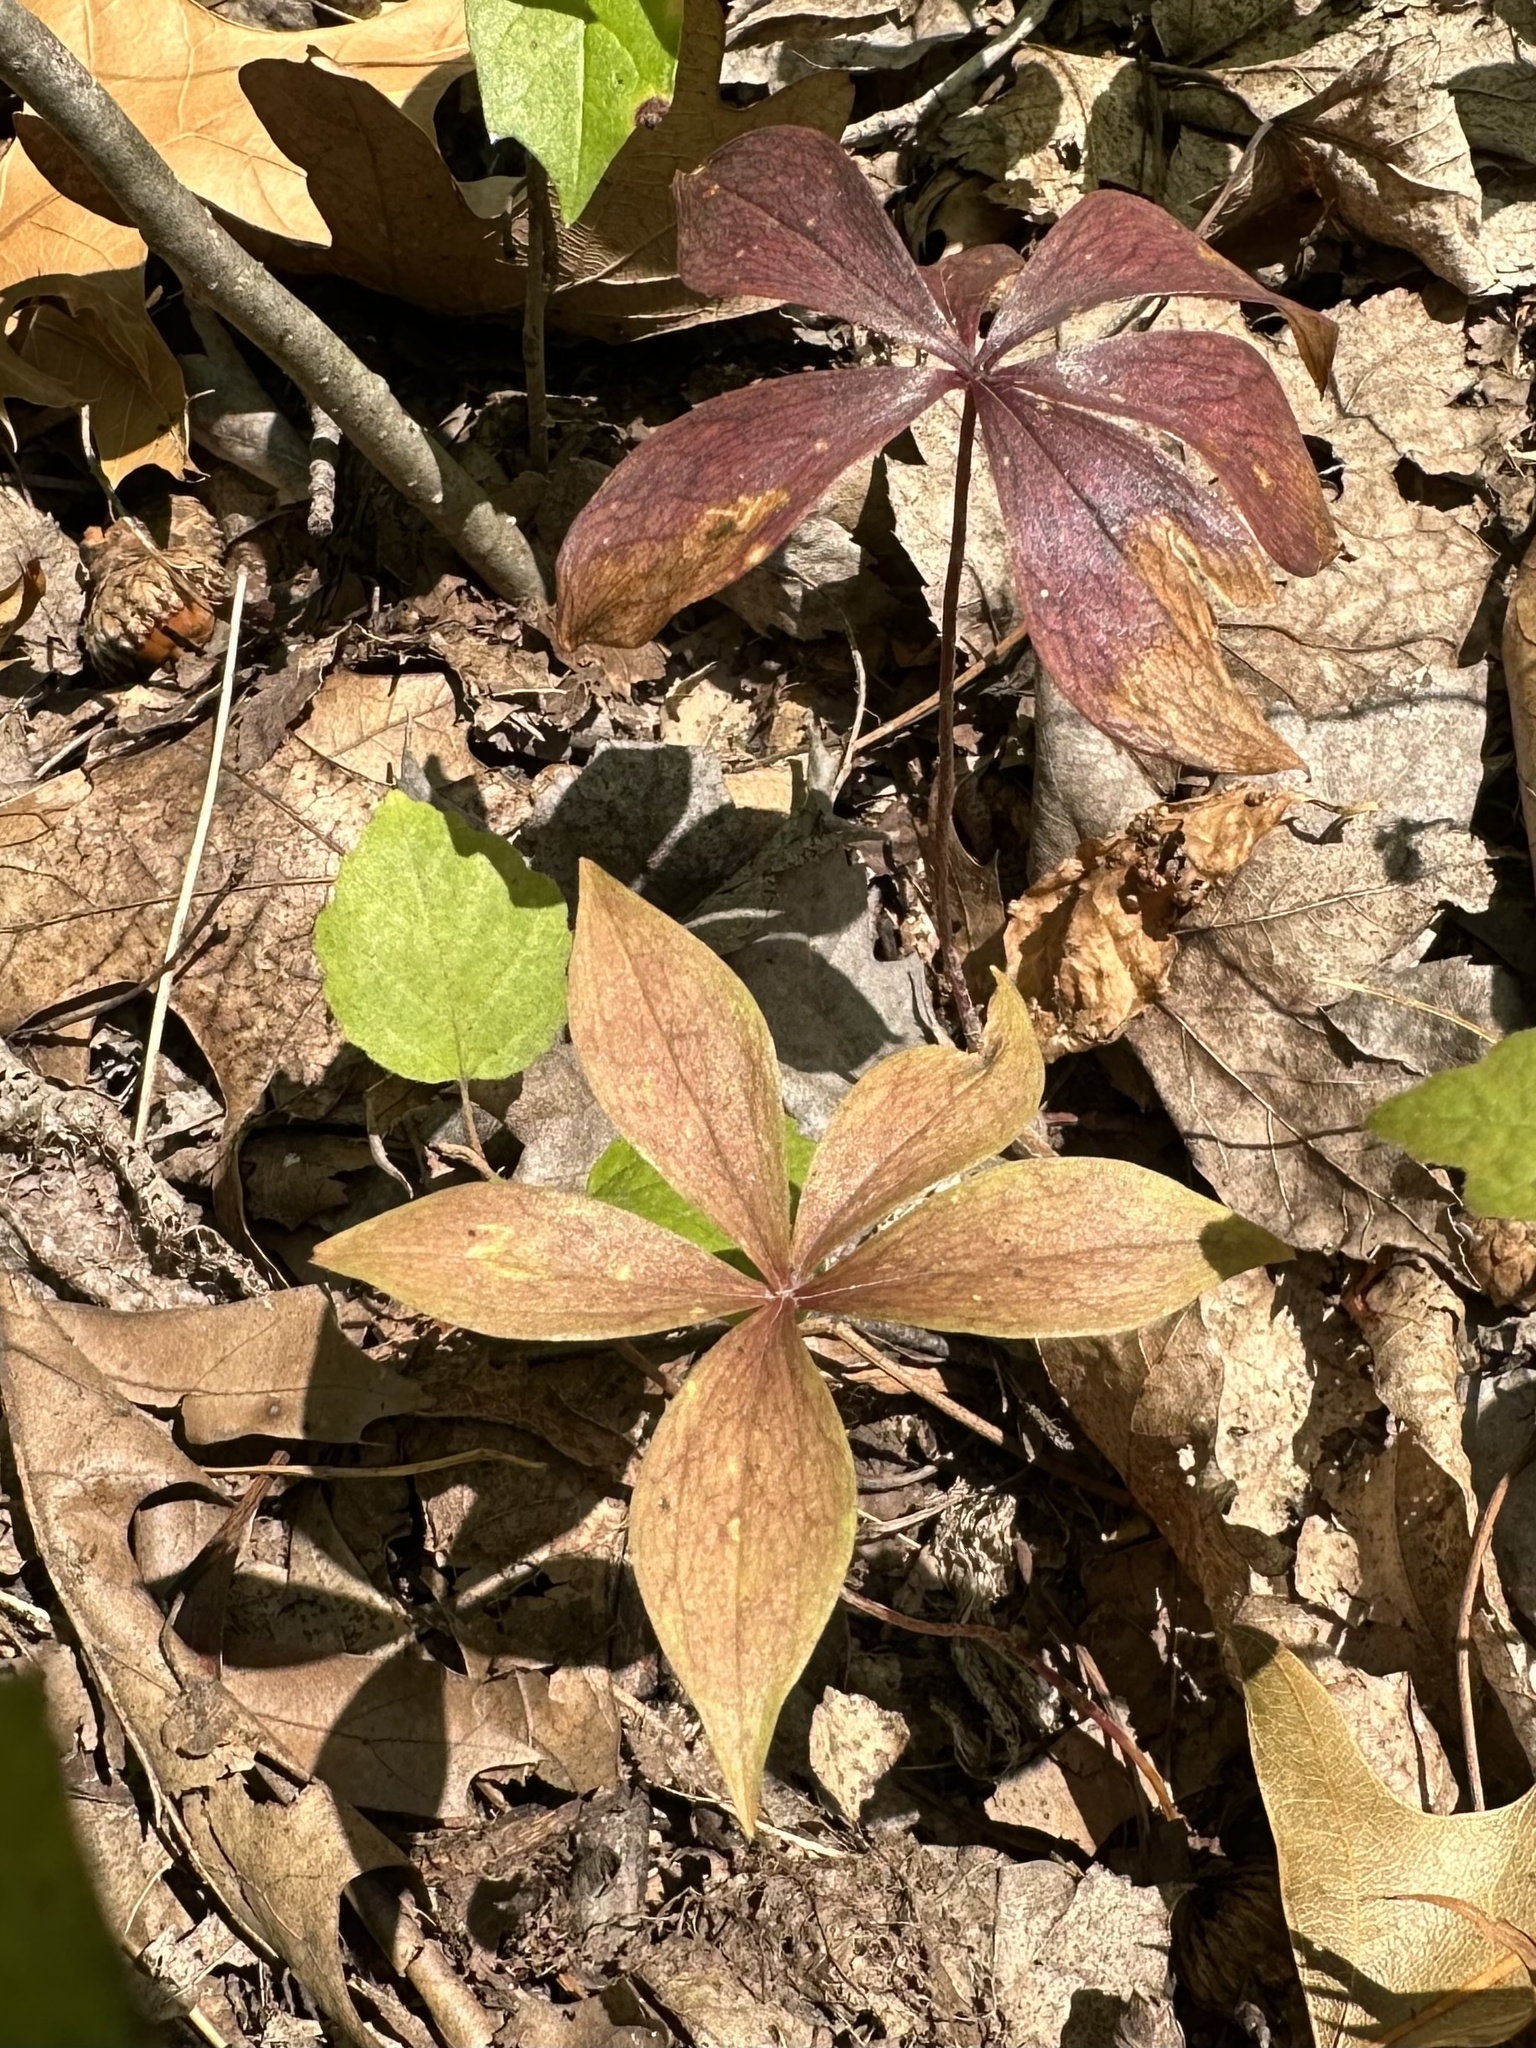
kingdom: Plantae
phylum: Tracheophyta
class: Liliopsida
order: Liliales
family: Liliaceae
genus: Medeola
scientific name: Medeola virginiana
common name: Indian cucumber-root
